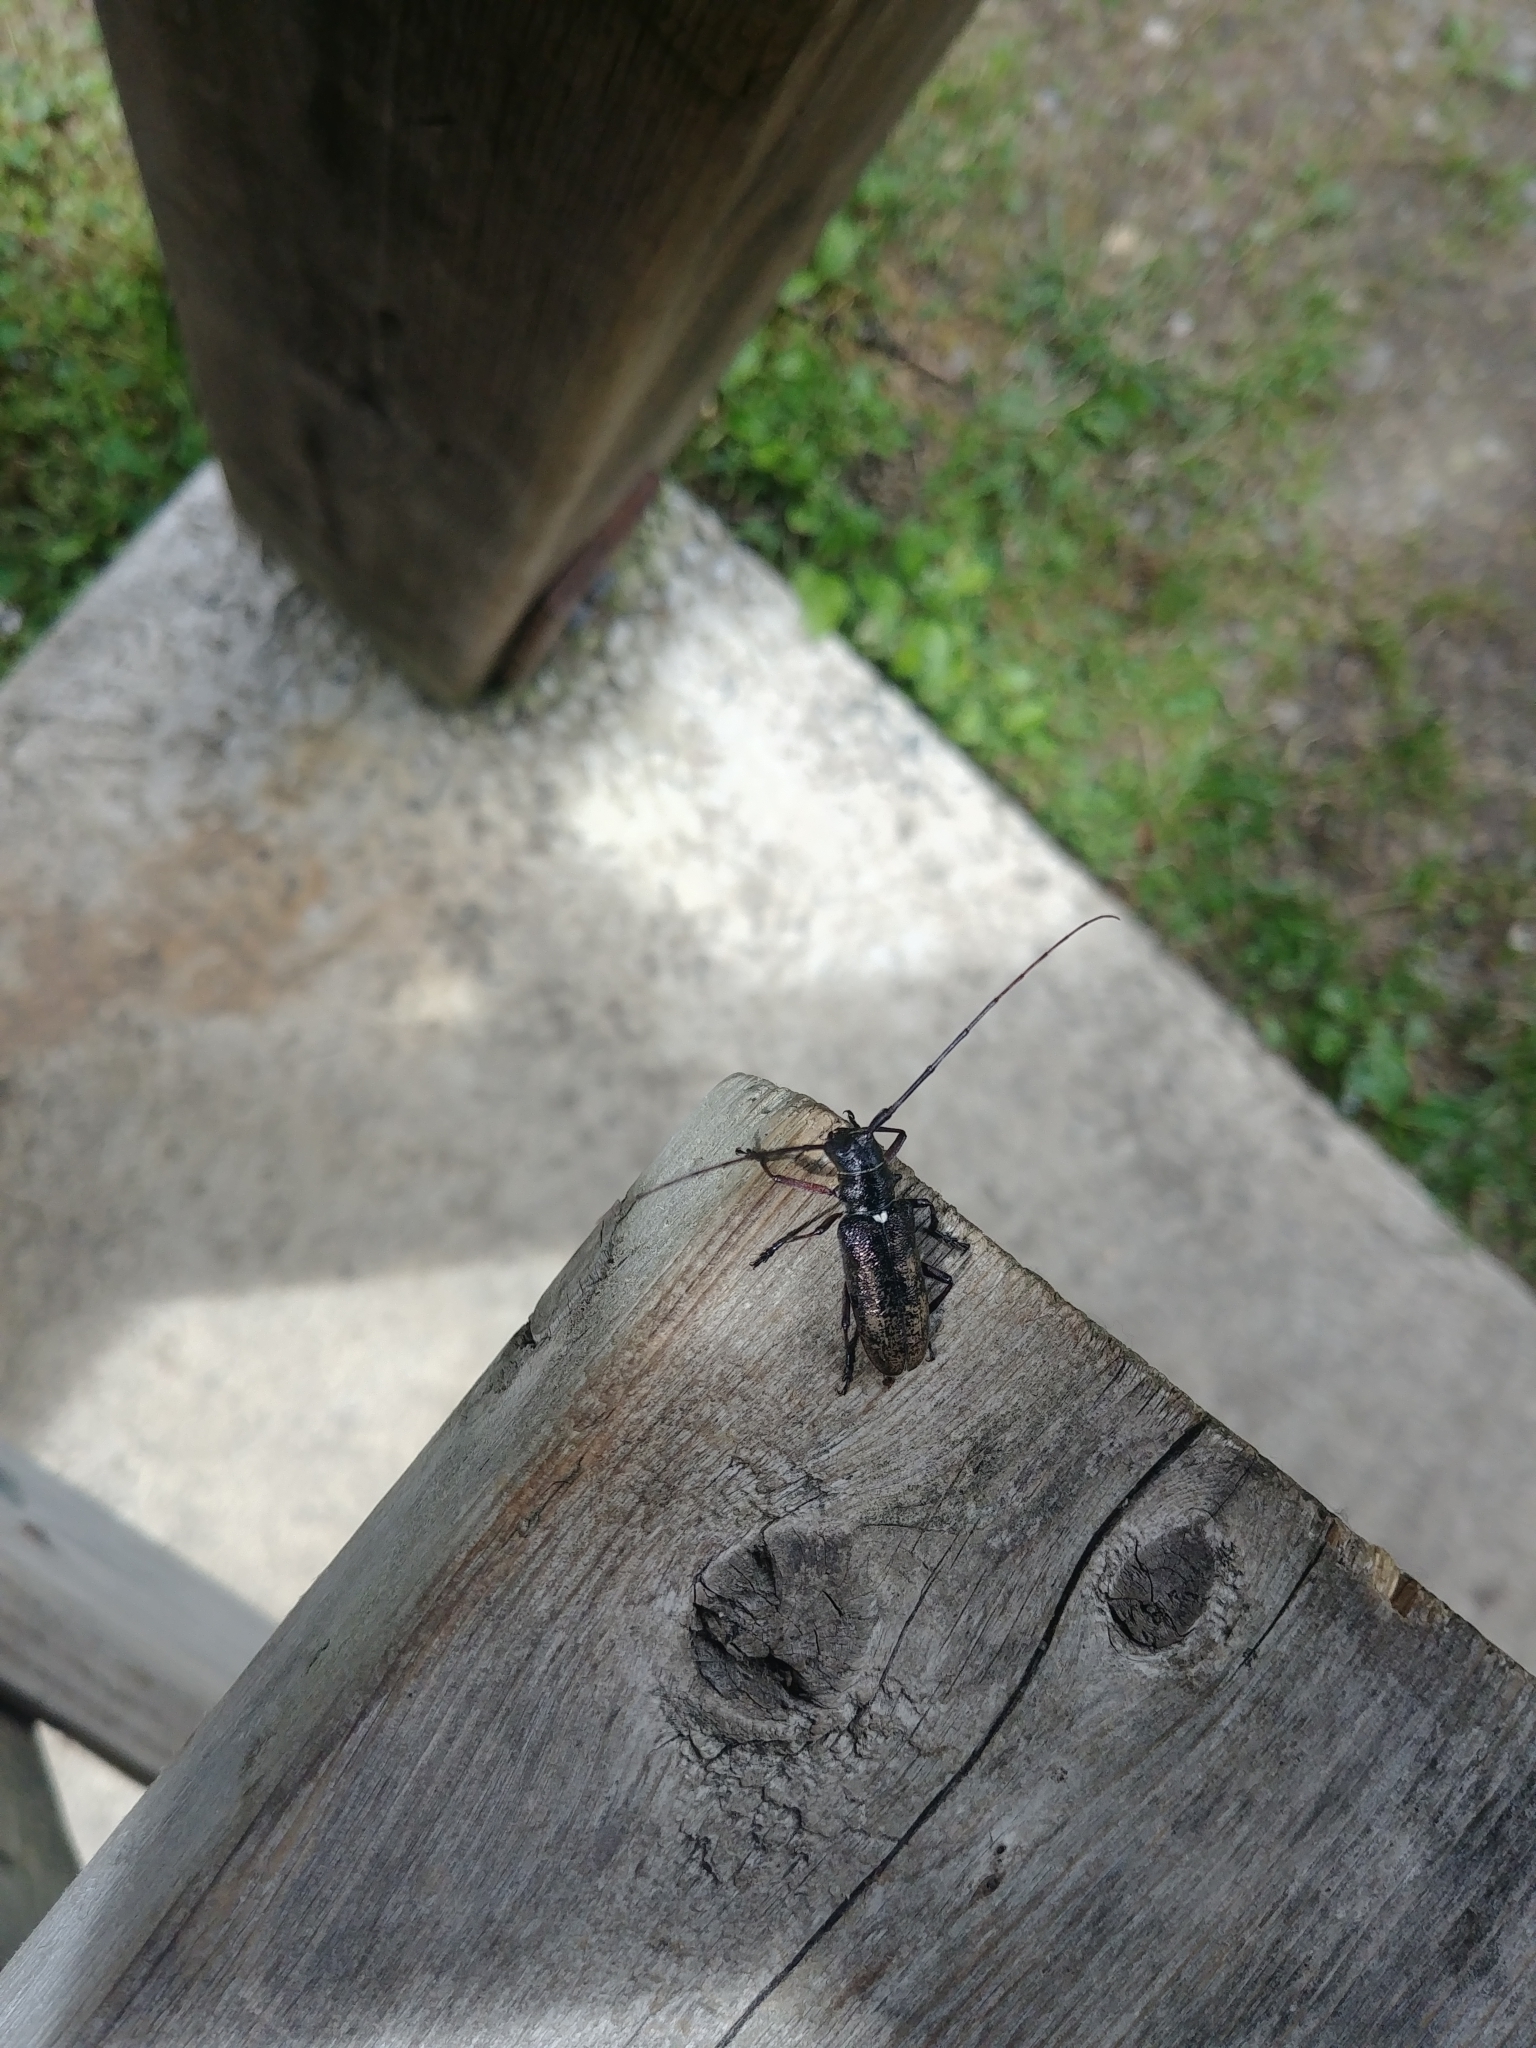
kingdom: Animalia
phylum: Arthropoda
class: Insecta
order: Coleoptera
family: Cerambycidae
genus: Monochamus
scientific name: Monochamus scutellatus
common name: White-spotted sawyer beetle
